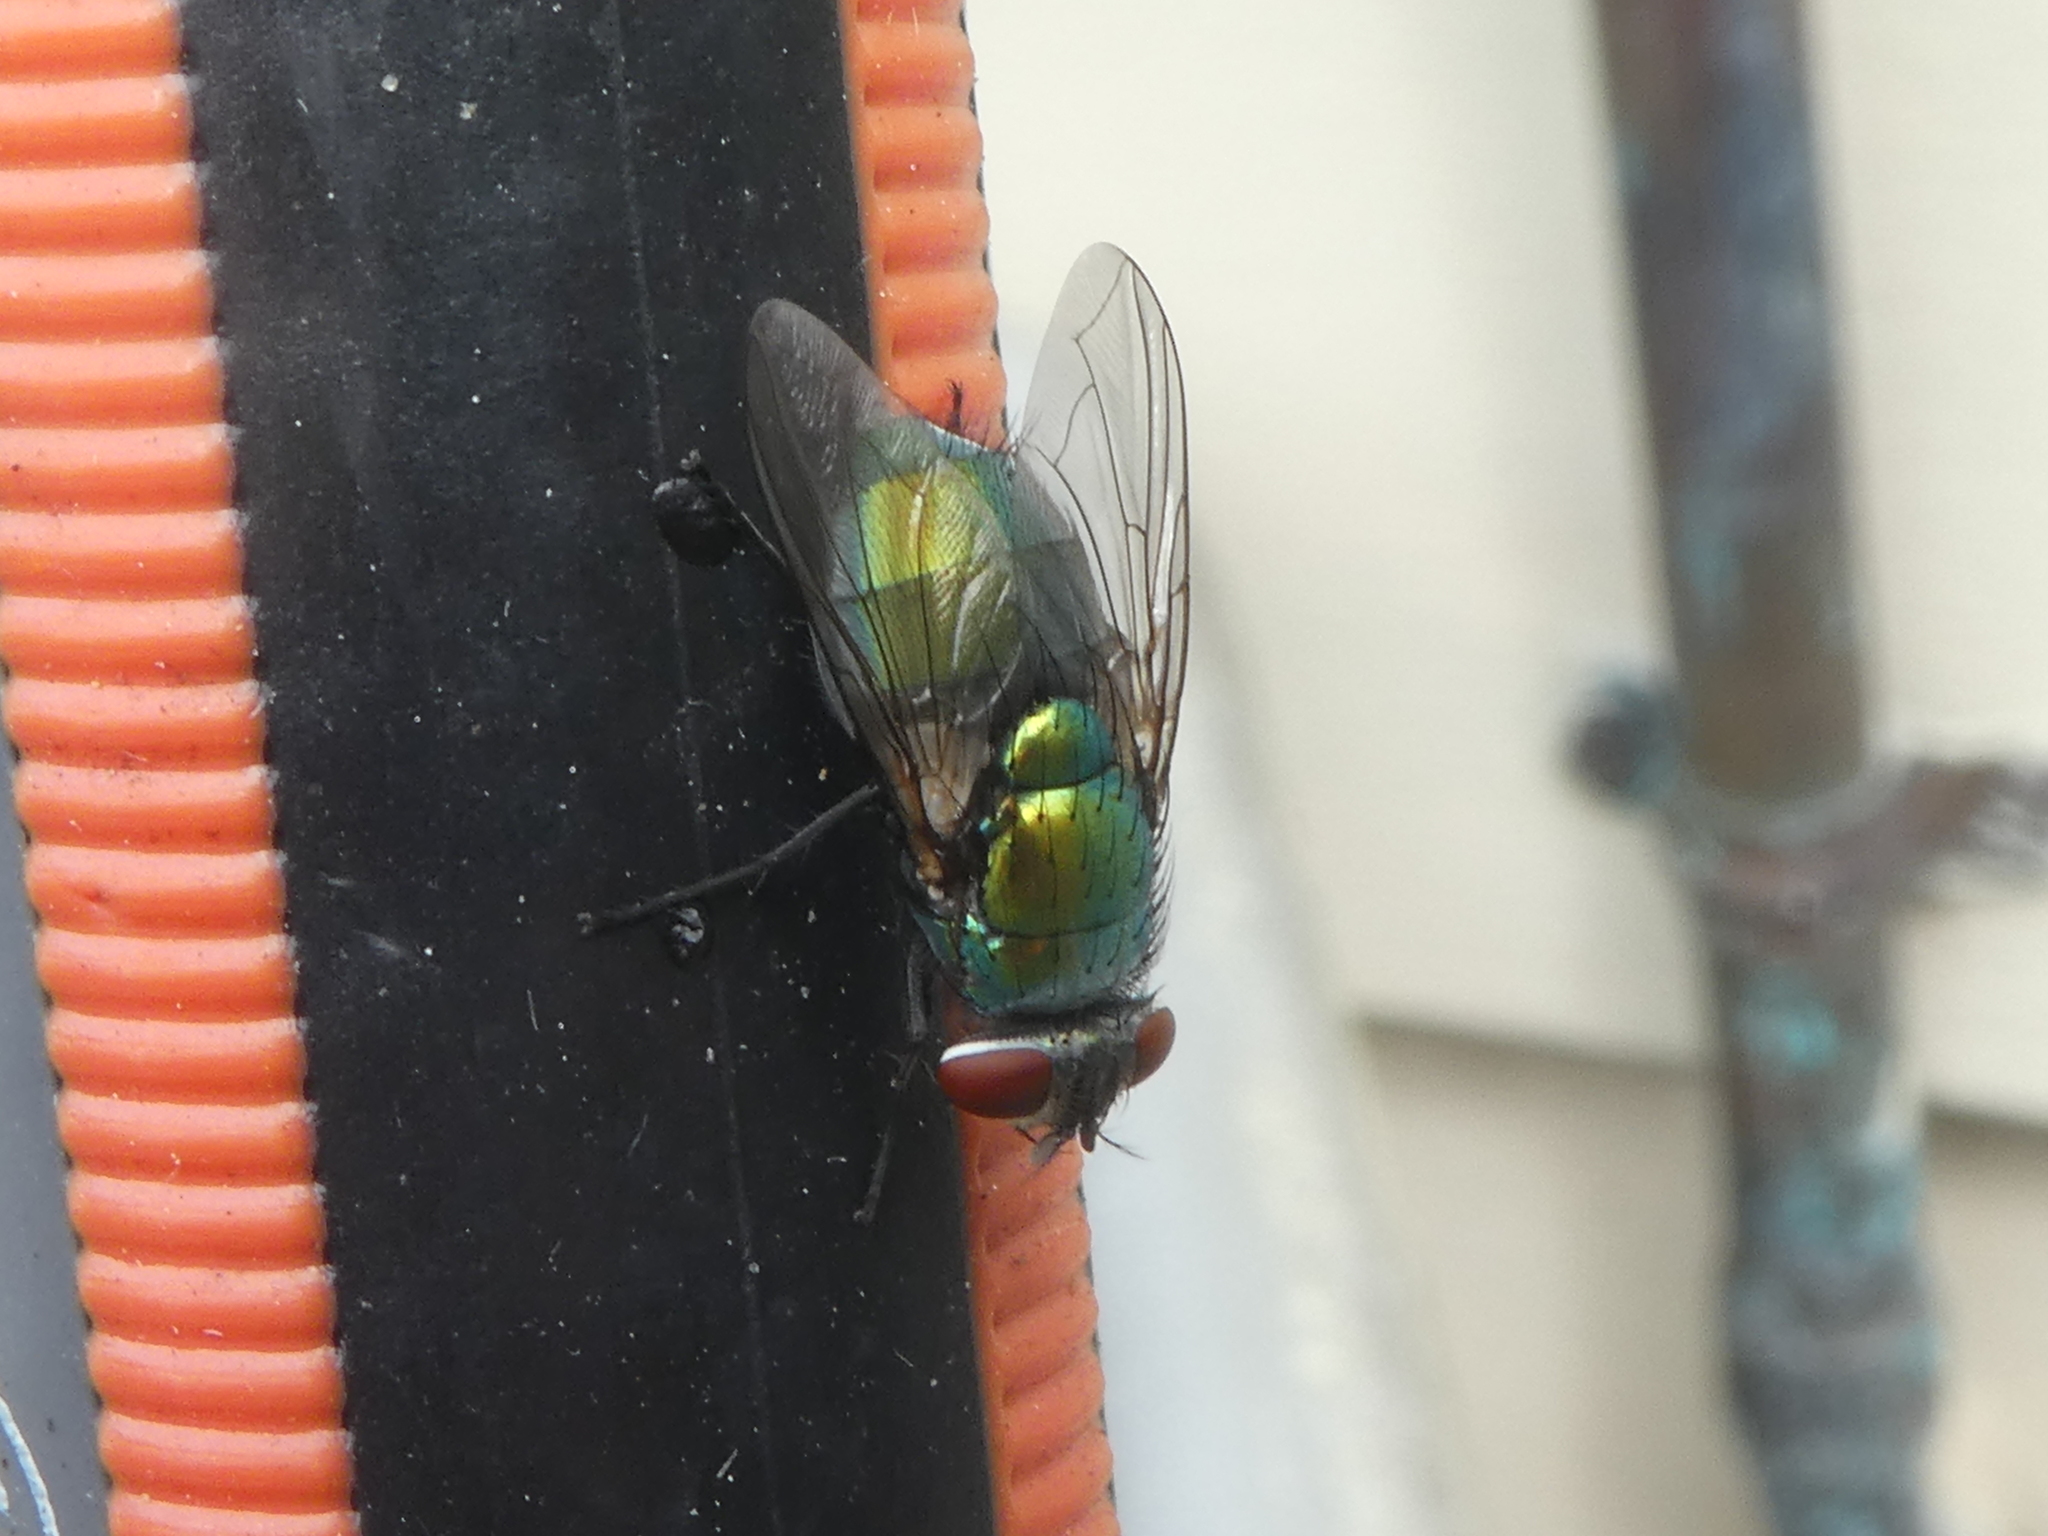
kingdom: Animalia
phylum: Arthropoda
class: Insecta
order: Diptera
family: Calliphoridae
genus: Lucilia
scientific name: Lucilia sericata
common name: Blow fly
